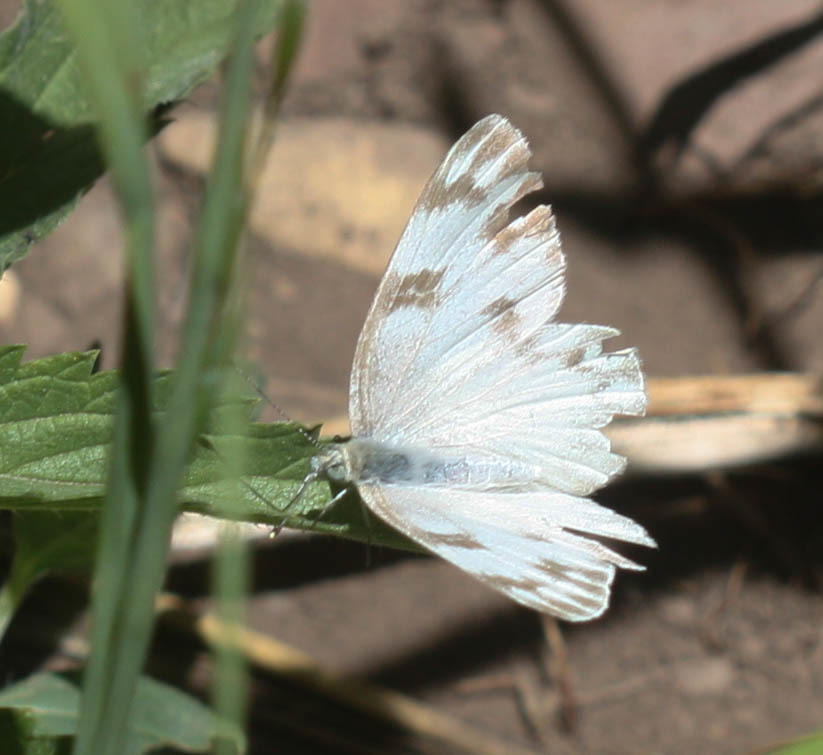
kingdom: Animalia
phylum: Arthropoda
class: Insecta
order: Lepidoptera
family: Pieridae
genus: Pontia
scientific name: Pontia protodice
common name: Checkered white
